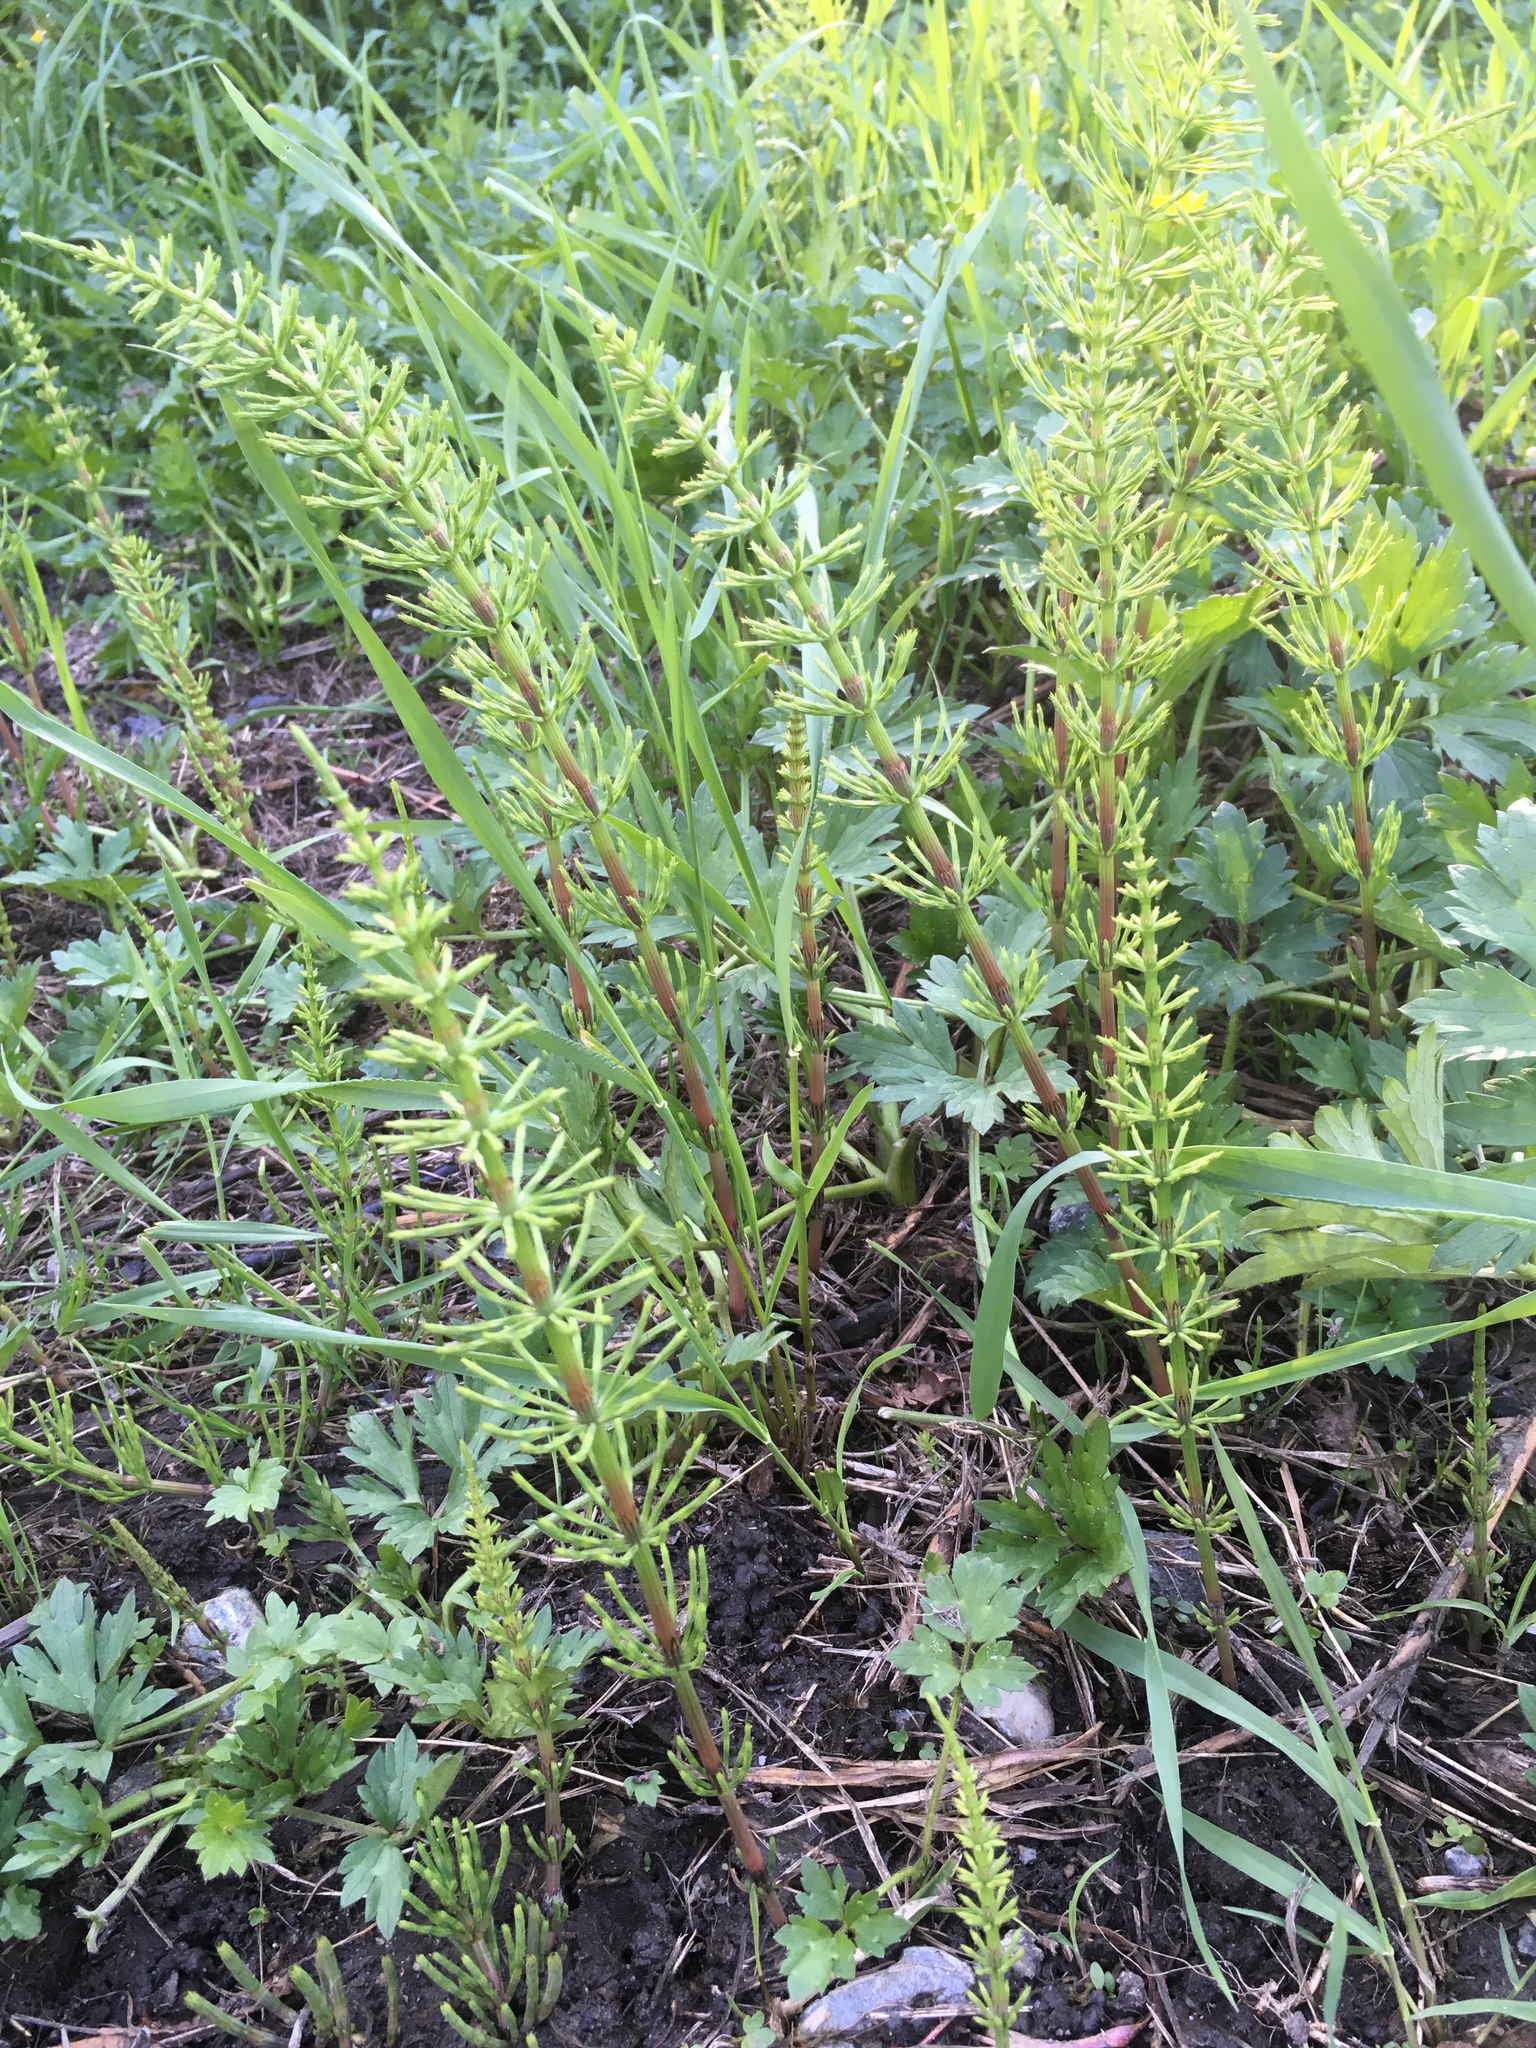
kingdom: Plantae
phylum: Tracheophyta
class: Polypodiopsida
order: Equisetales
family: Equisetaceae
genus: Equisetum
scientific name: Equisetum arvense
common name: Field horsetail
